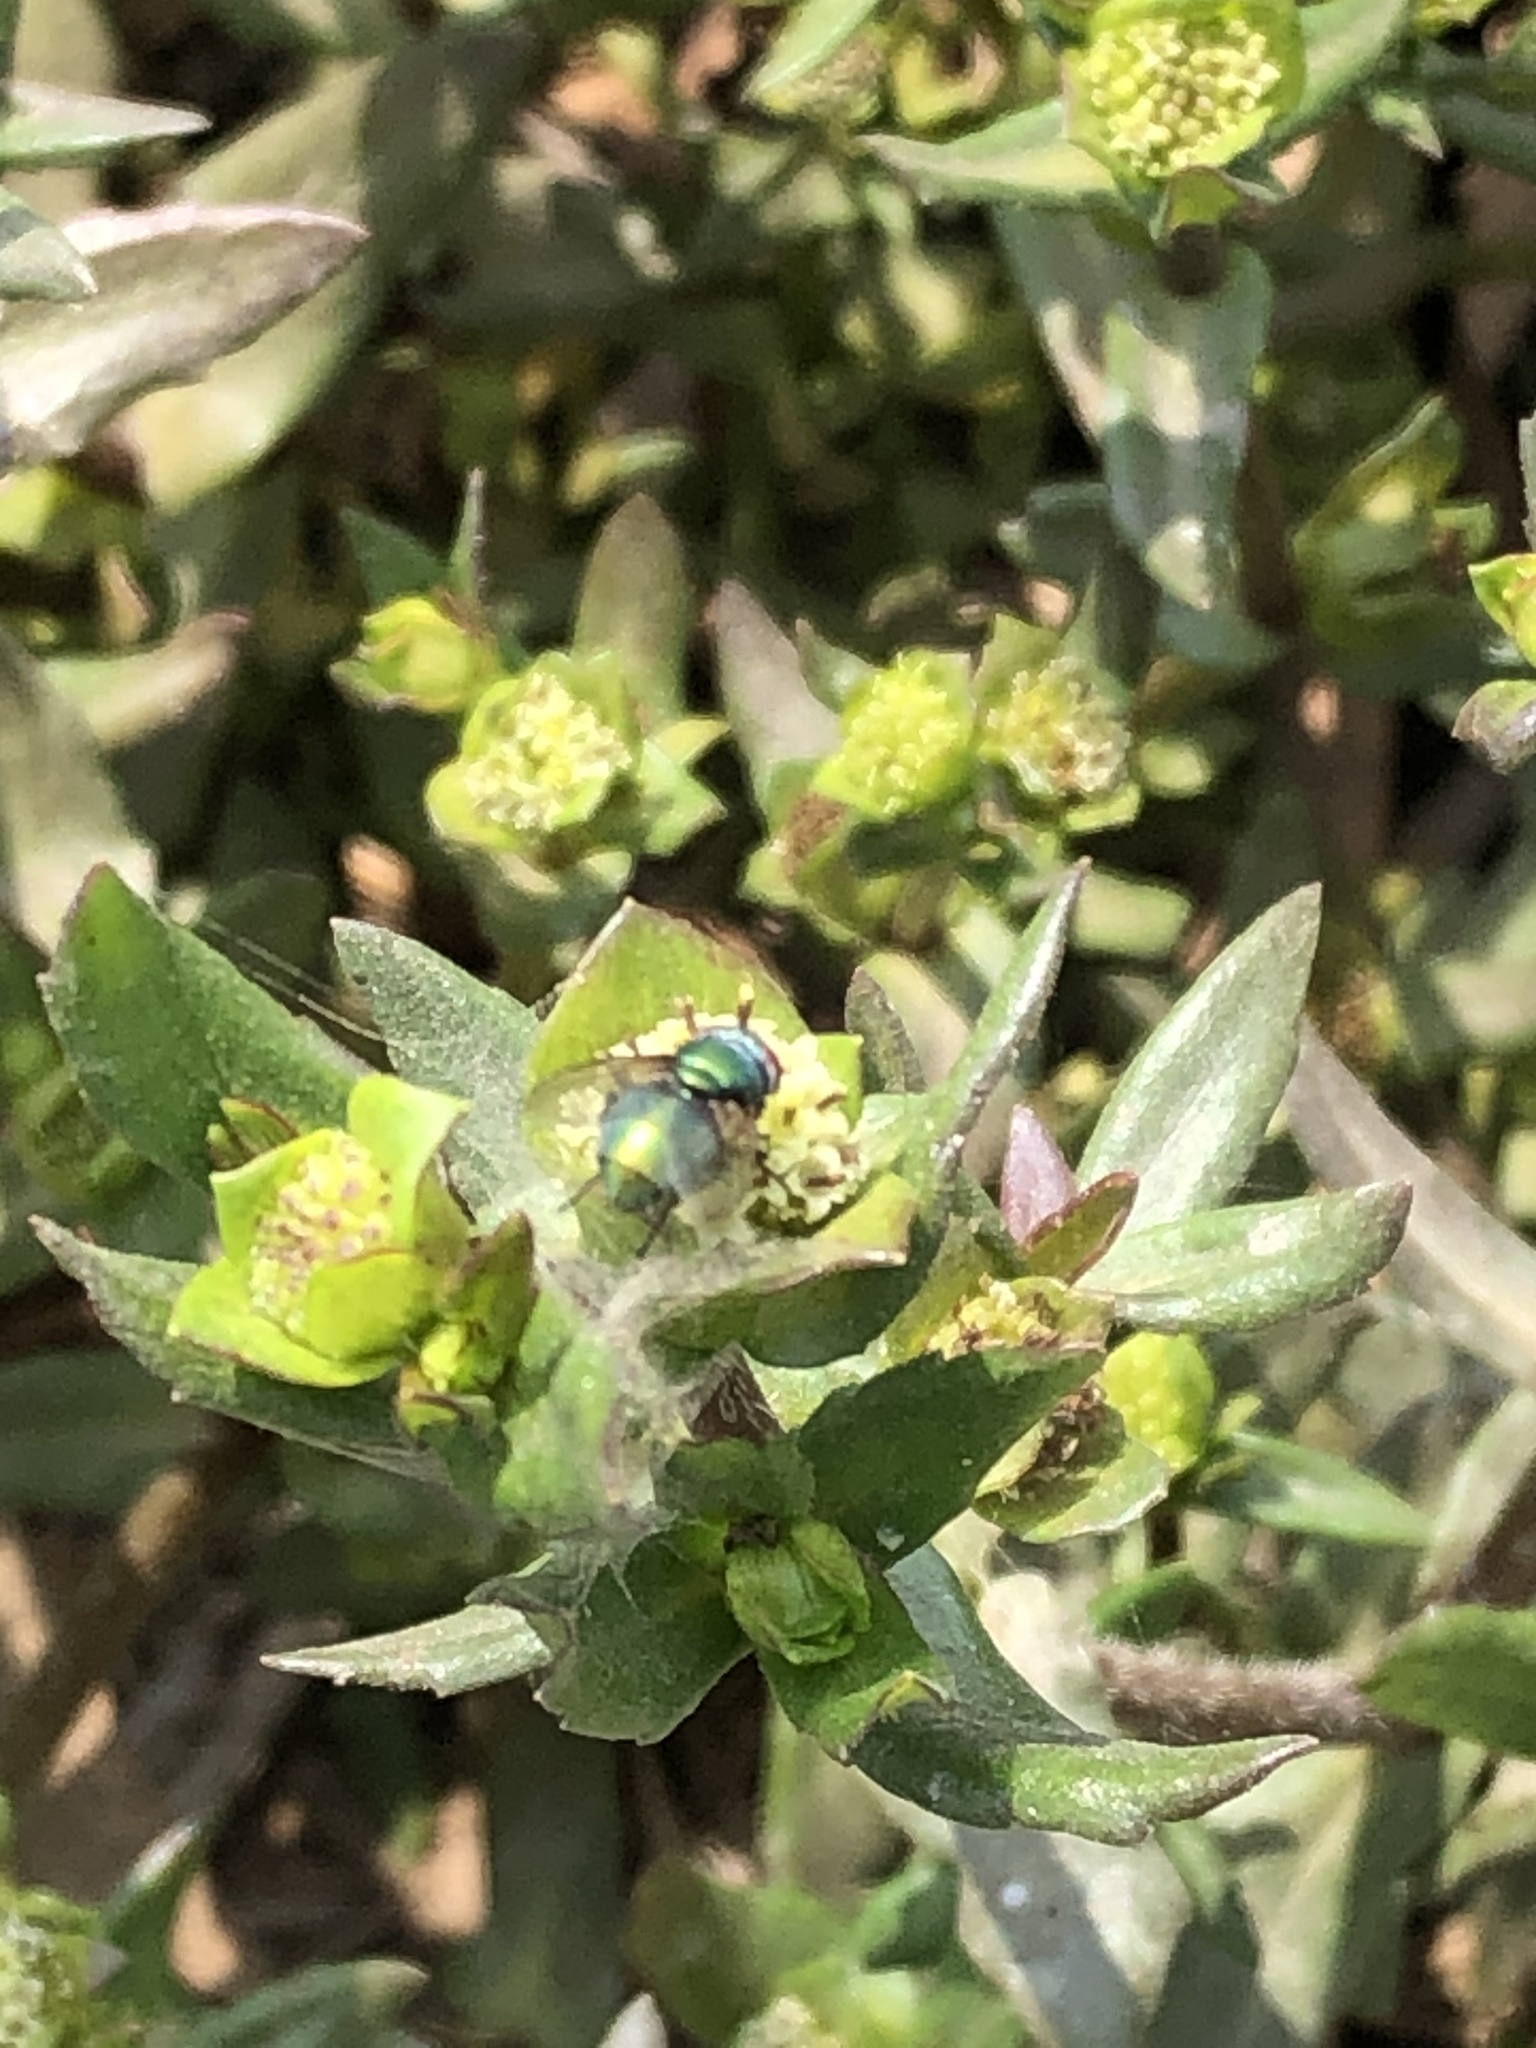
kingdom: Animalia
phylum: Arthropoda
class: Insecta
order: Diptera
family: Calliphoridae
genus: Lucilia
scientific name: Lucilia sericata
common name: Blow fly
